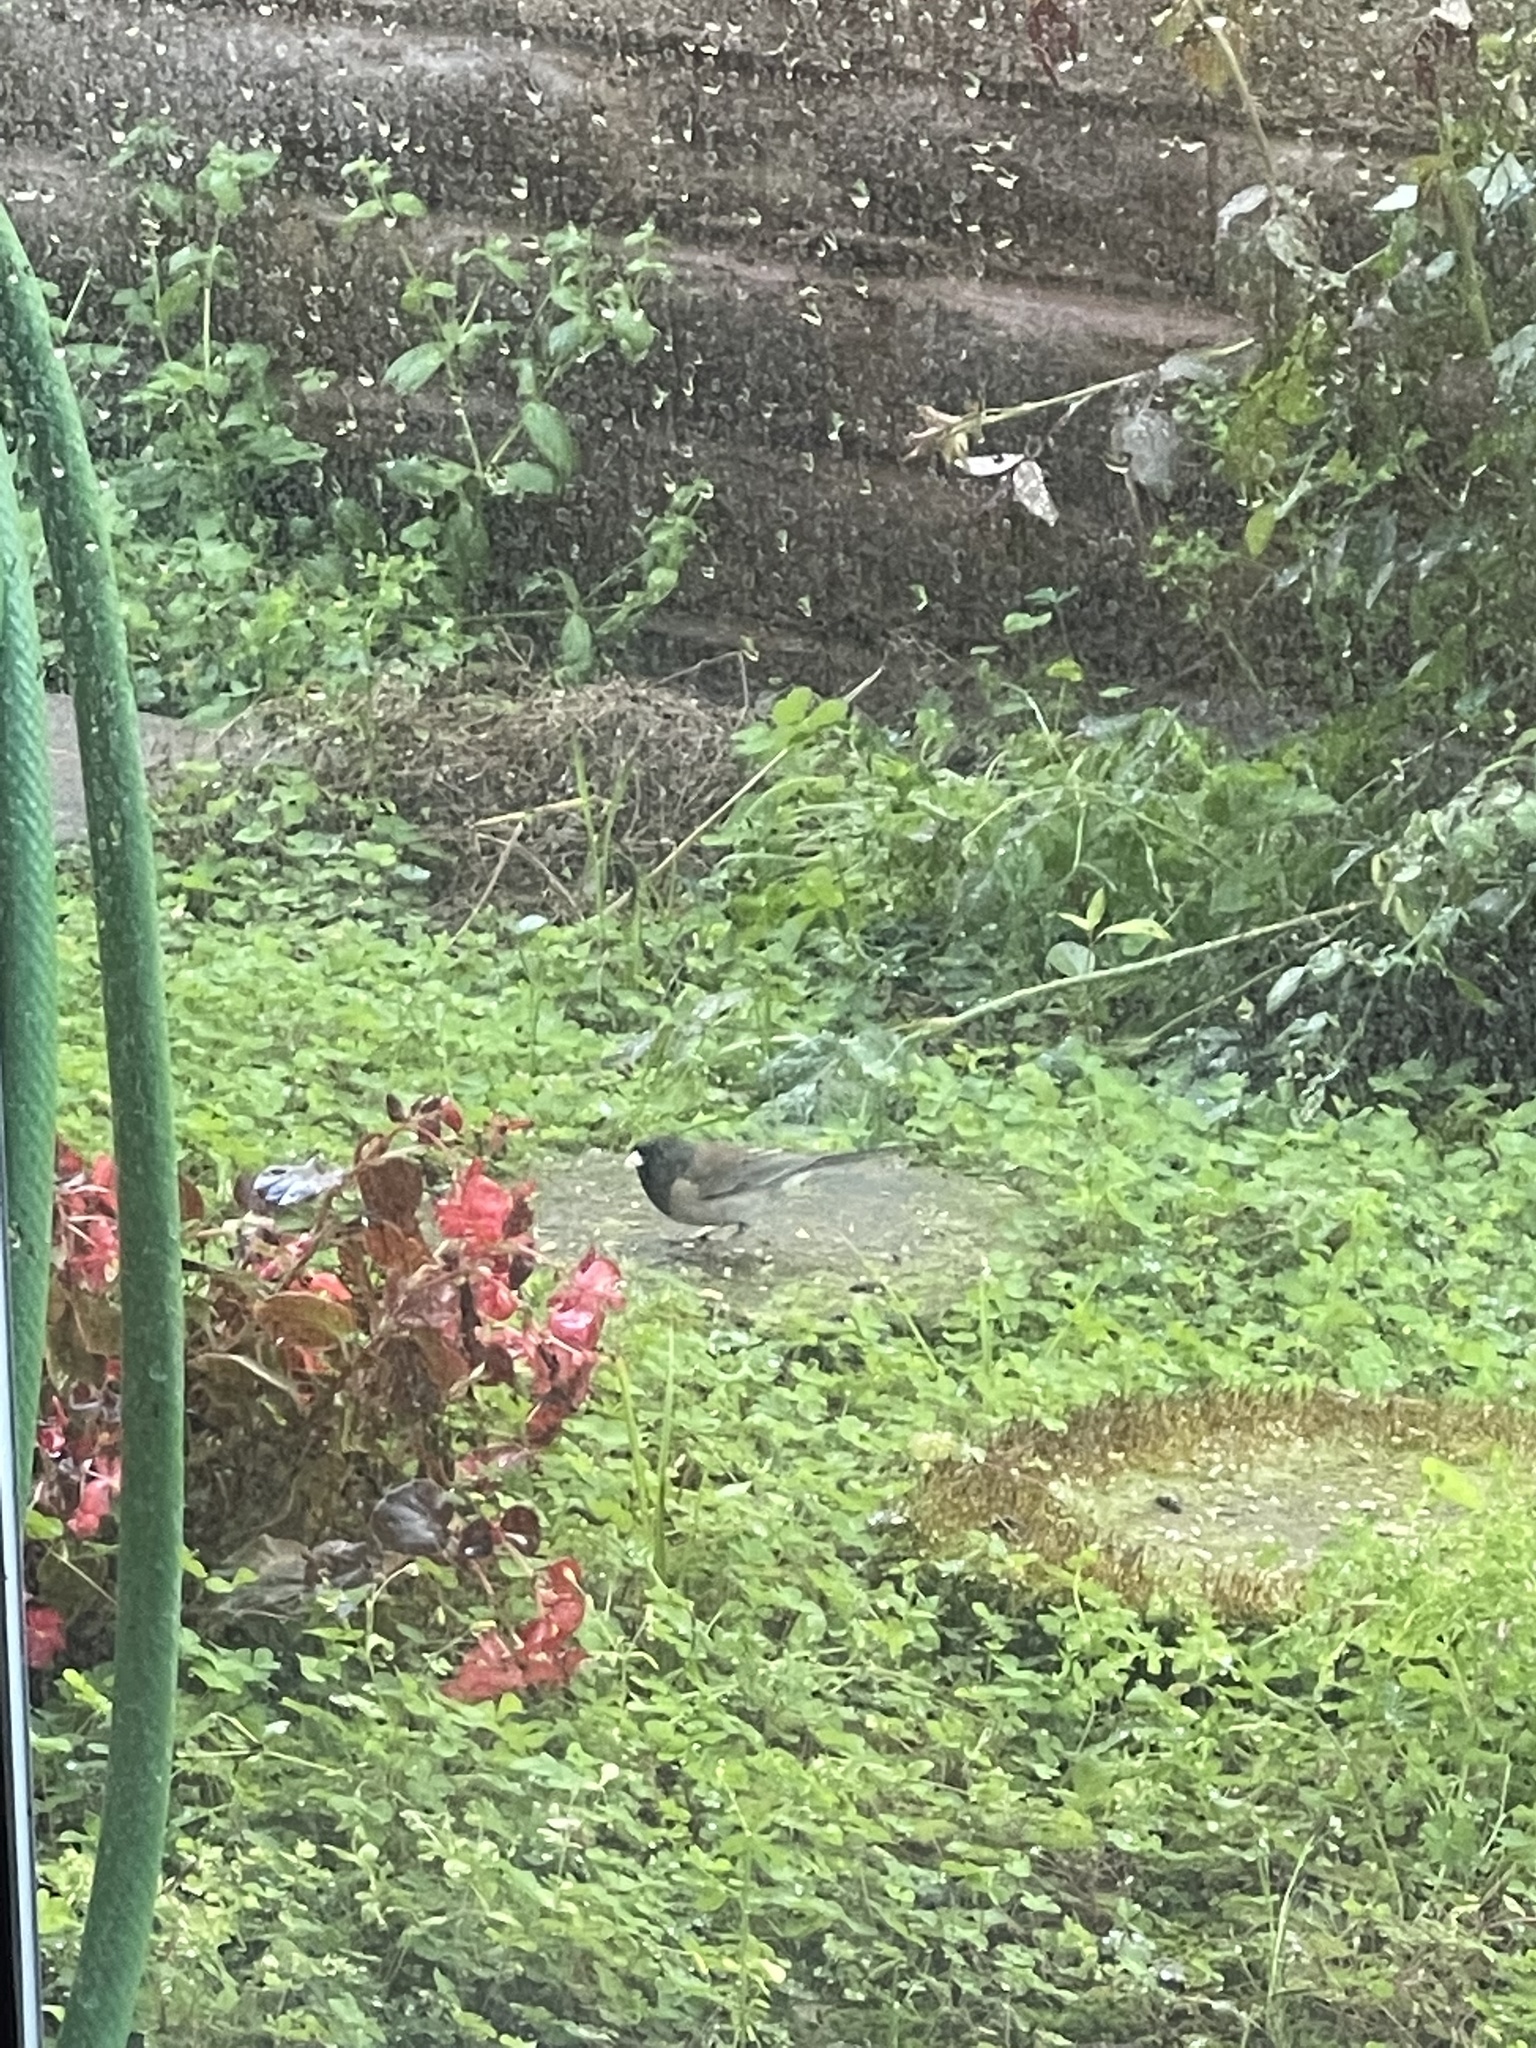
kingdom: Animalia
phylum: Chordata
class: Aves
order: Passeriformes
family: Passerellidae
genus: Junco
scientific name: Junco hyemalis
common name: Dark-eyed junco
